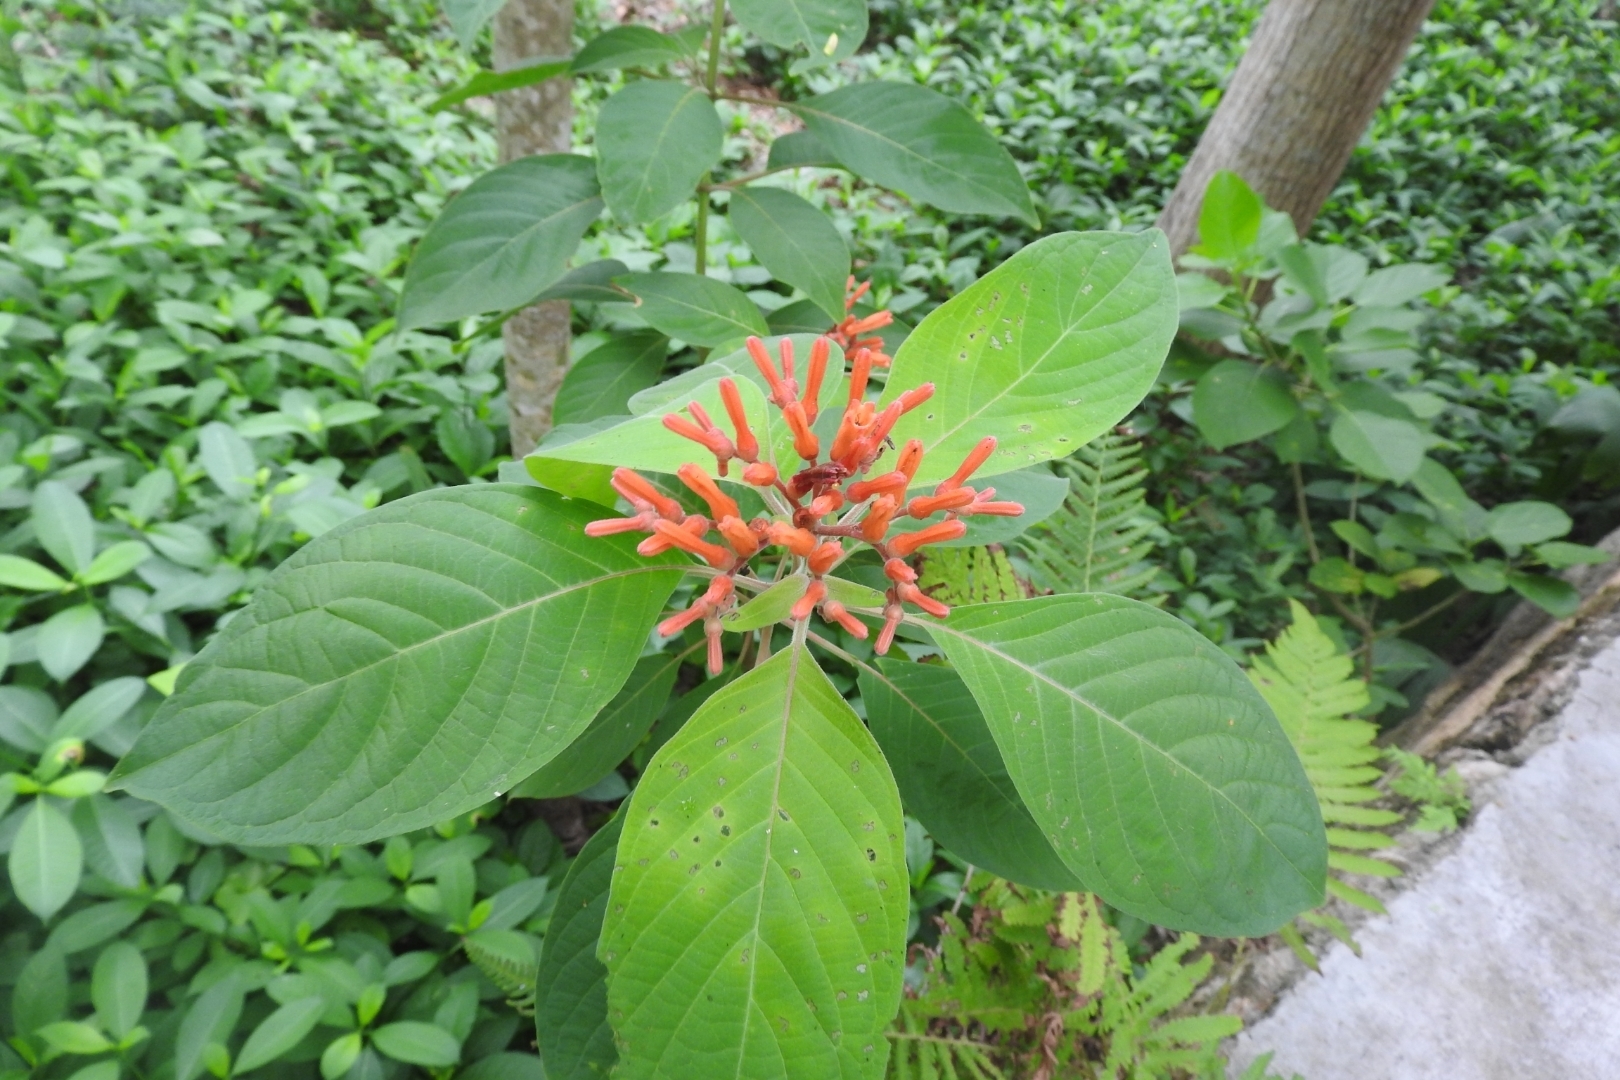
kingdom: Plantae
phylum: Tracheophyta
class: Magnoliopsida
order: Gentianales
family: Rubiaceae
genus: Hamelia
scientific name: Hamelia patens
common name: Redhead
